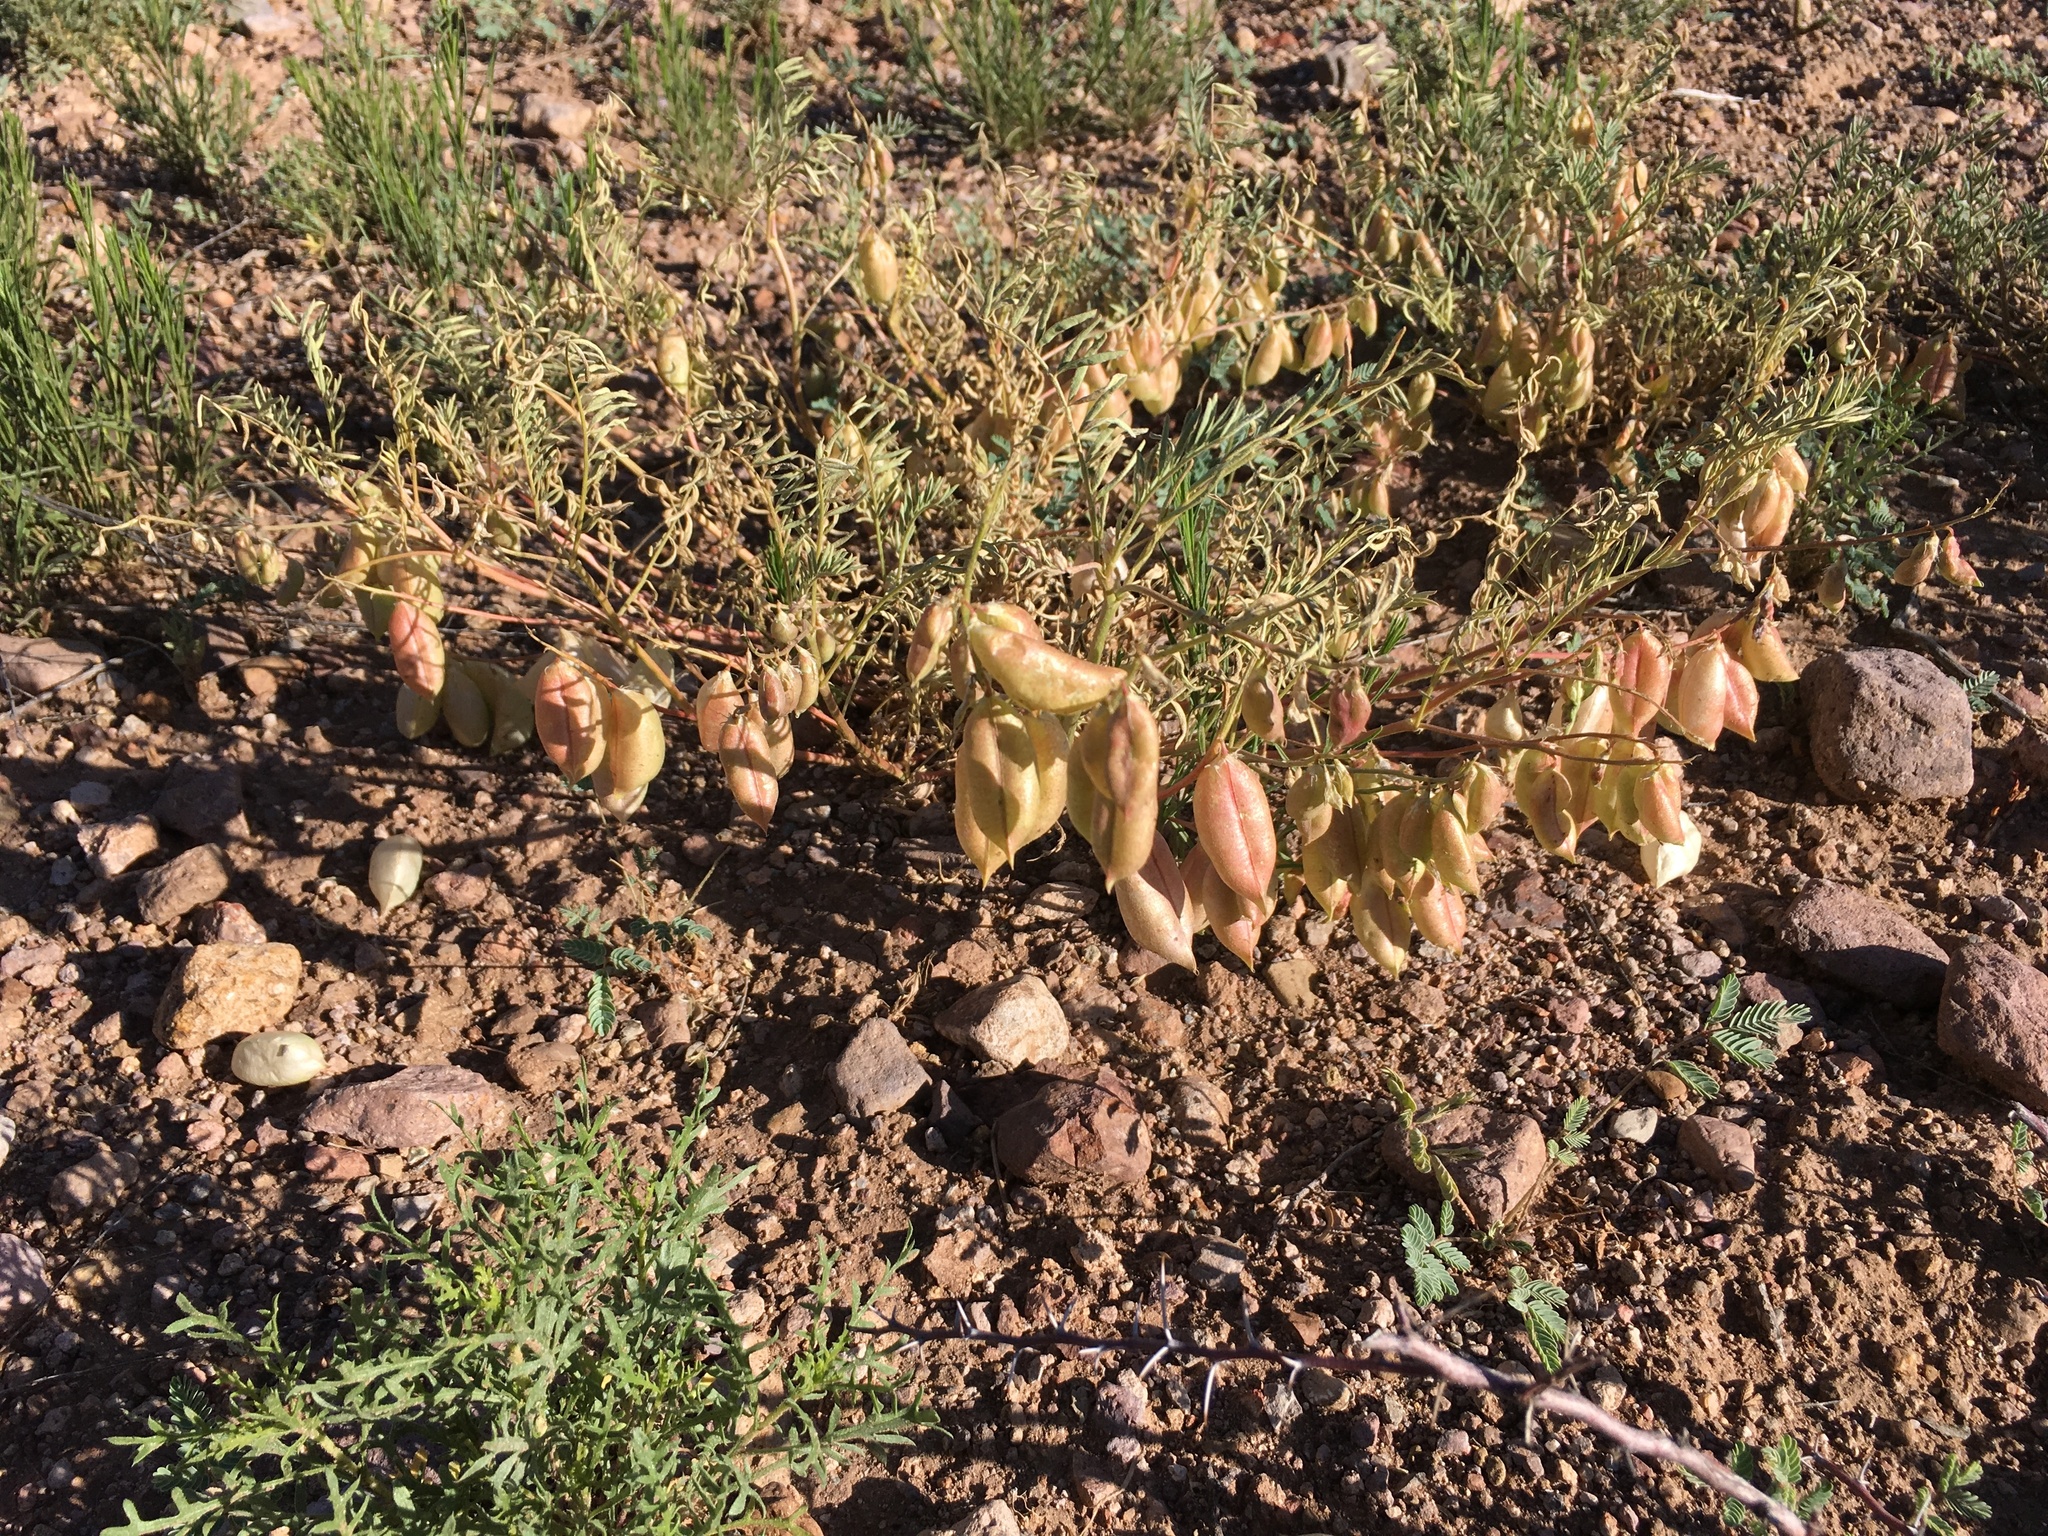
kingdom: Plantae
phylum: Tracheophyta
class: Magnoliopsida
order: Fabales
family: Fabaceae
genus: Astragalus
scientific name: Astragalus allochrous
